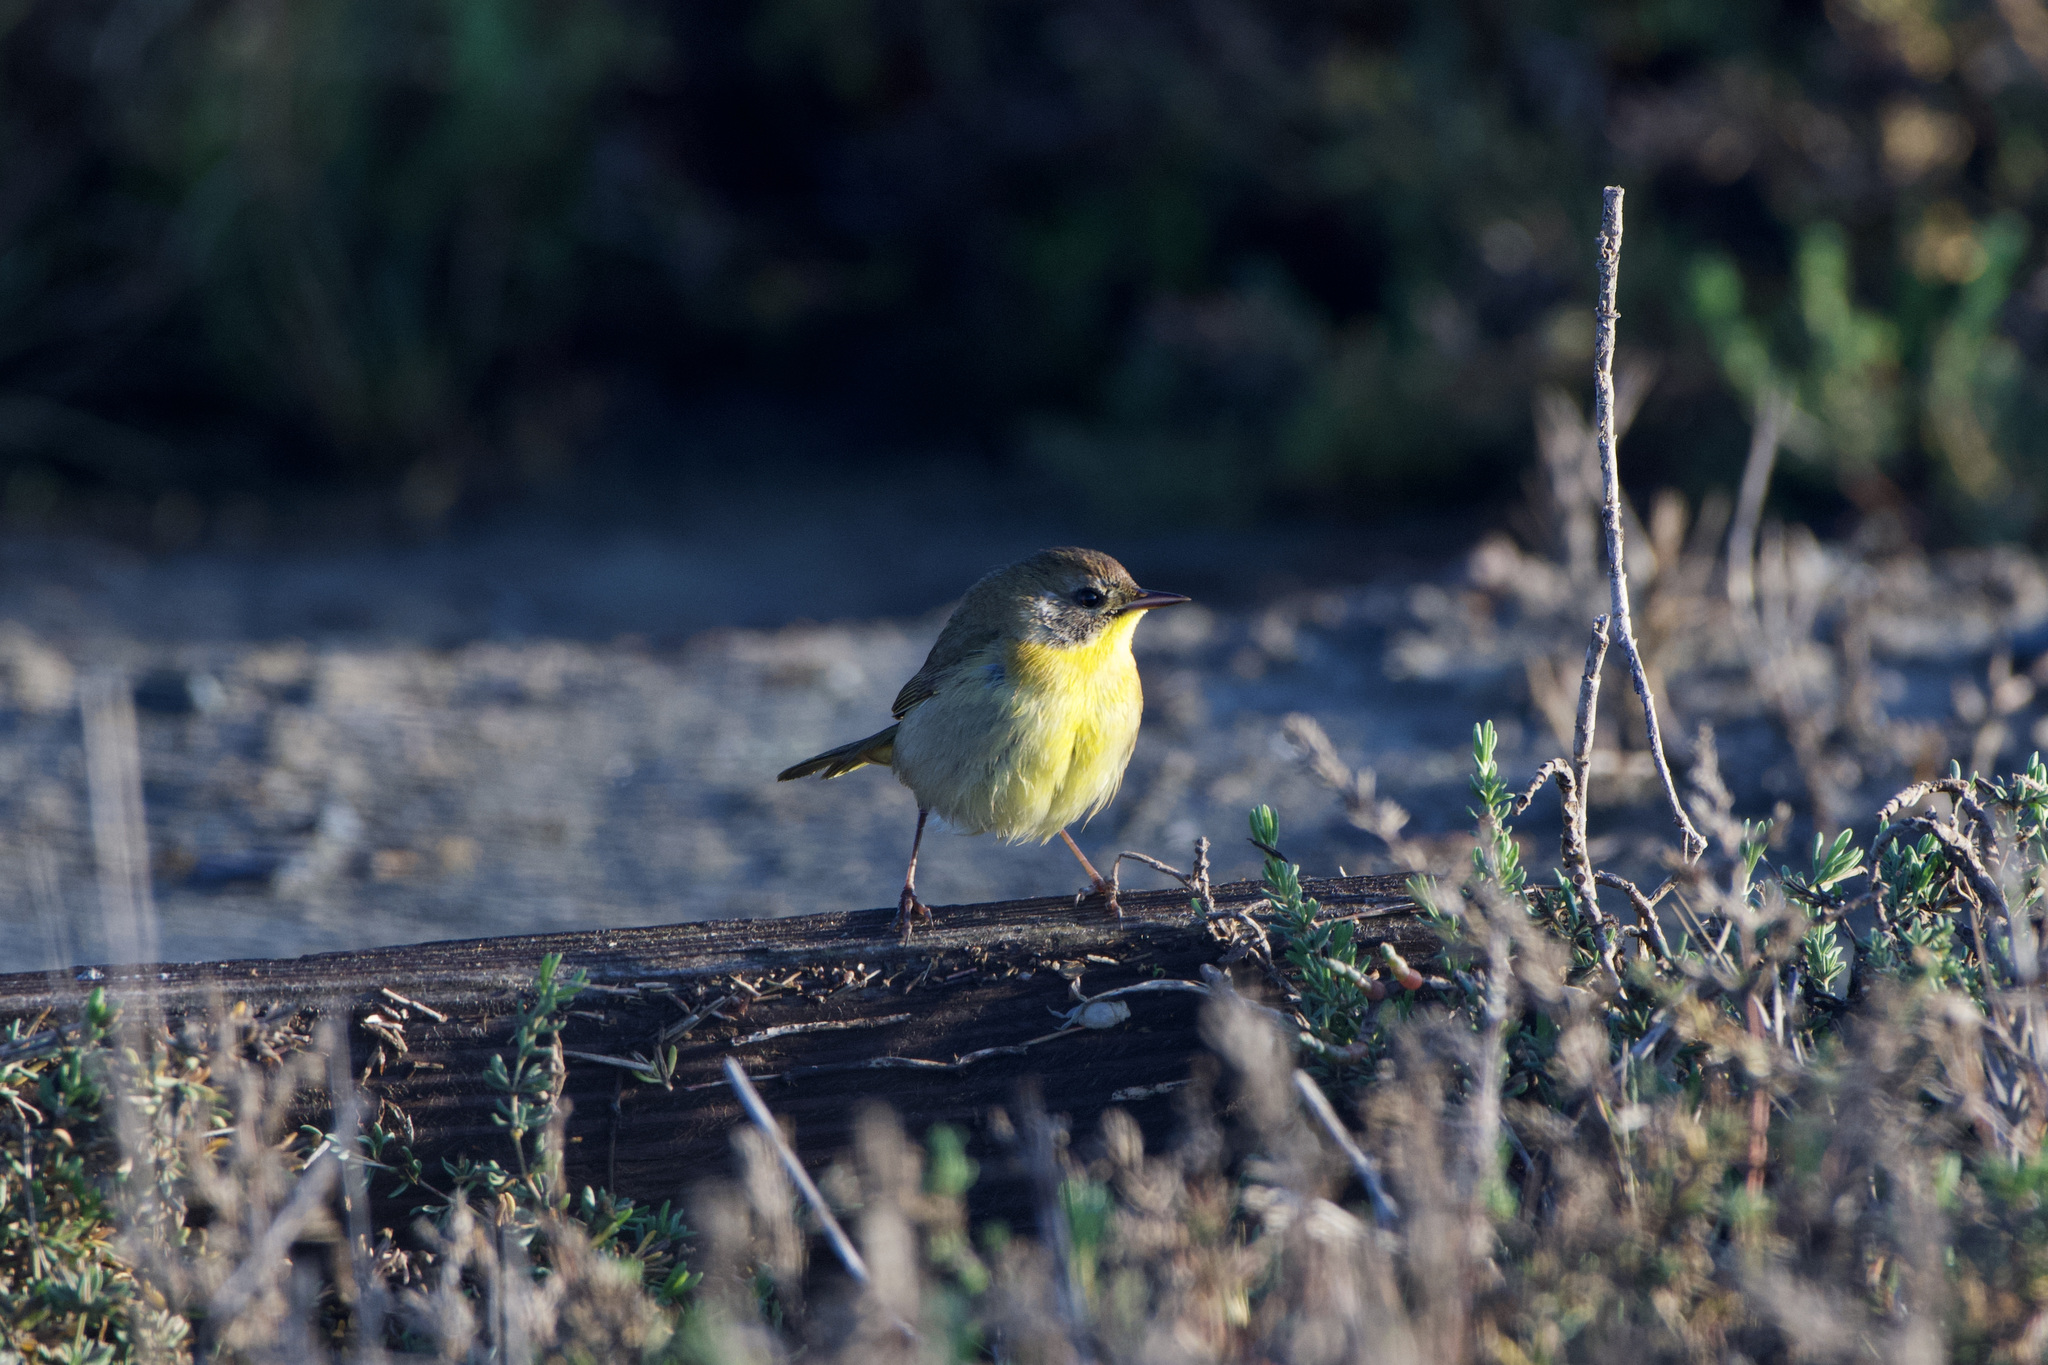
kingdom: Animalia
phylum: Chordata
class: Aves
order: Passeriformes
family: Parulidae
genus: Geothlypis
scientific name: Geothlypis trichas
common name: Common yellowthroat
